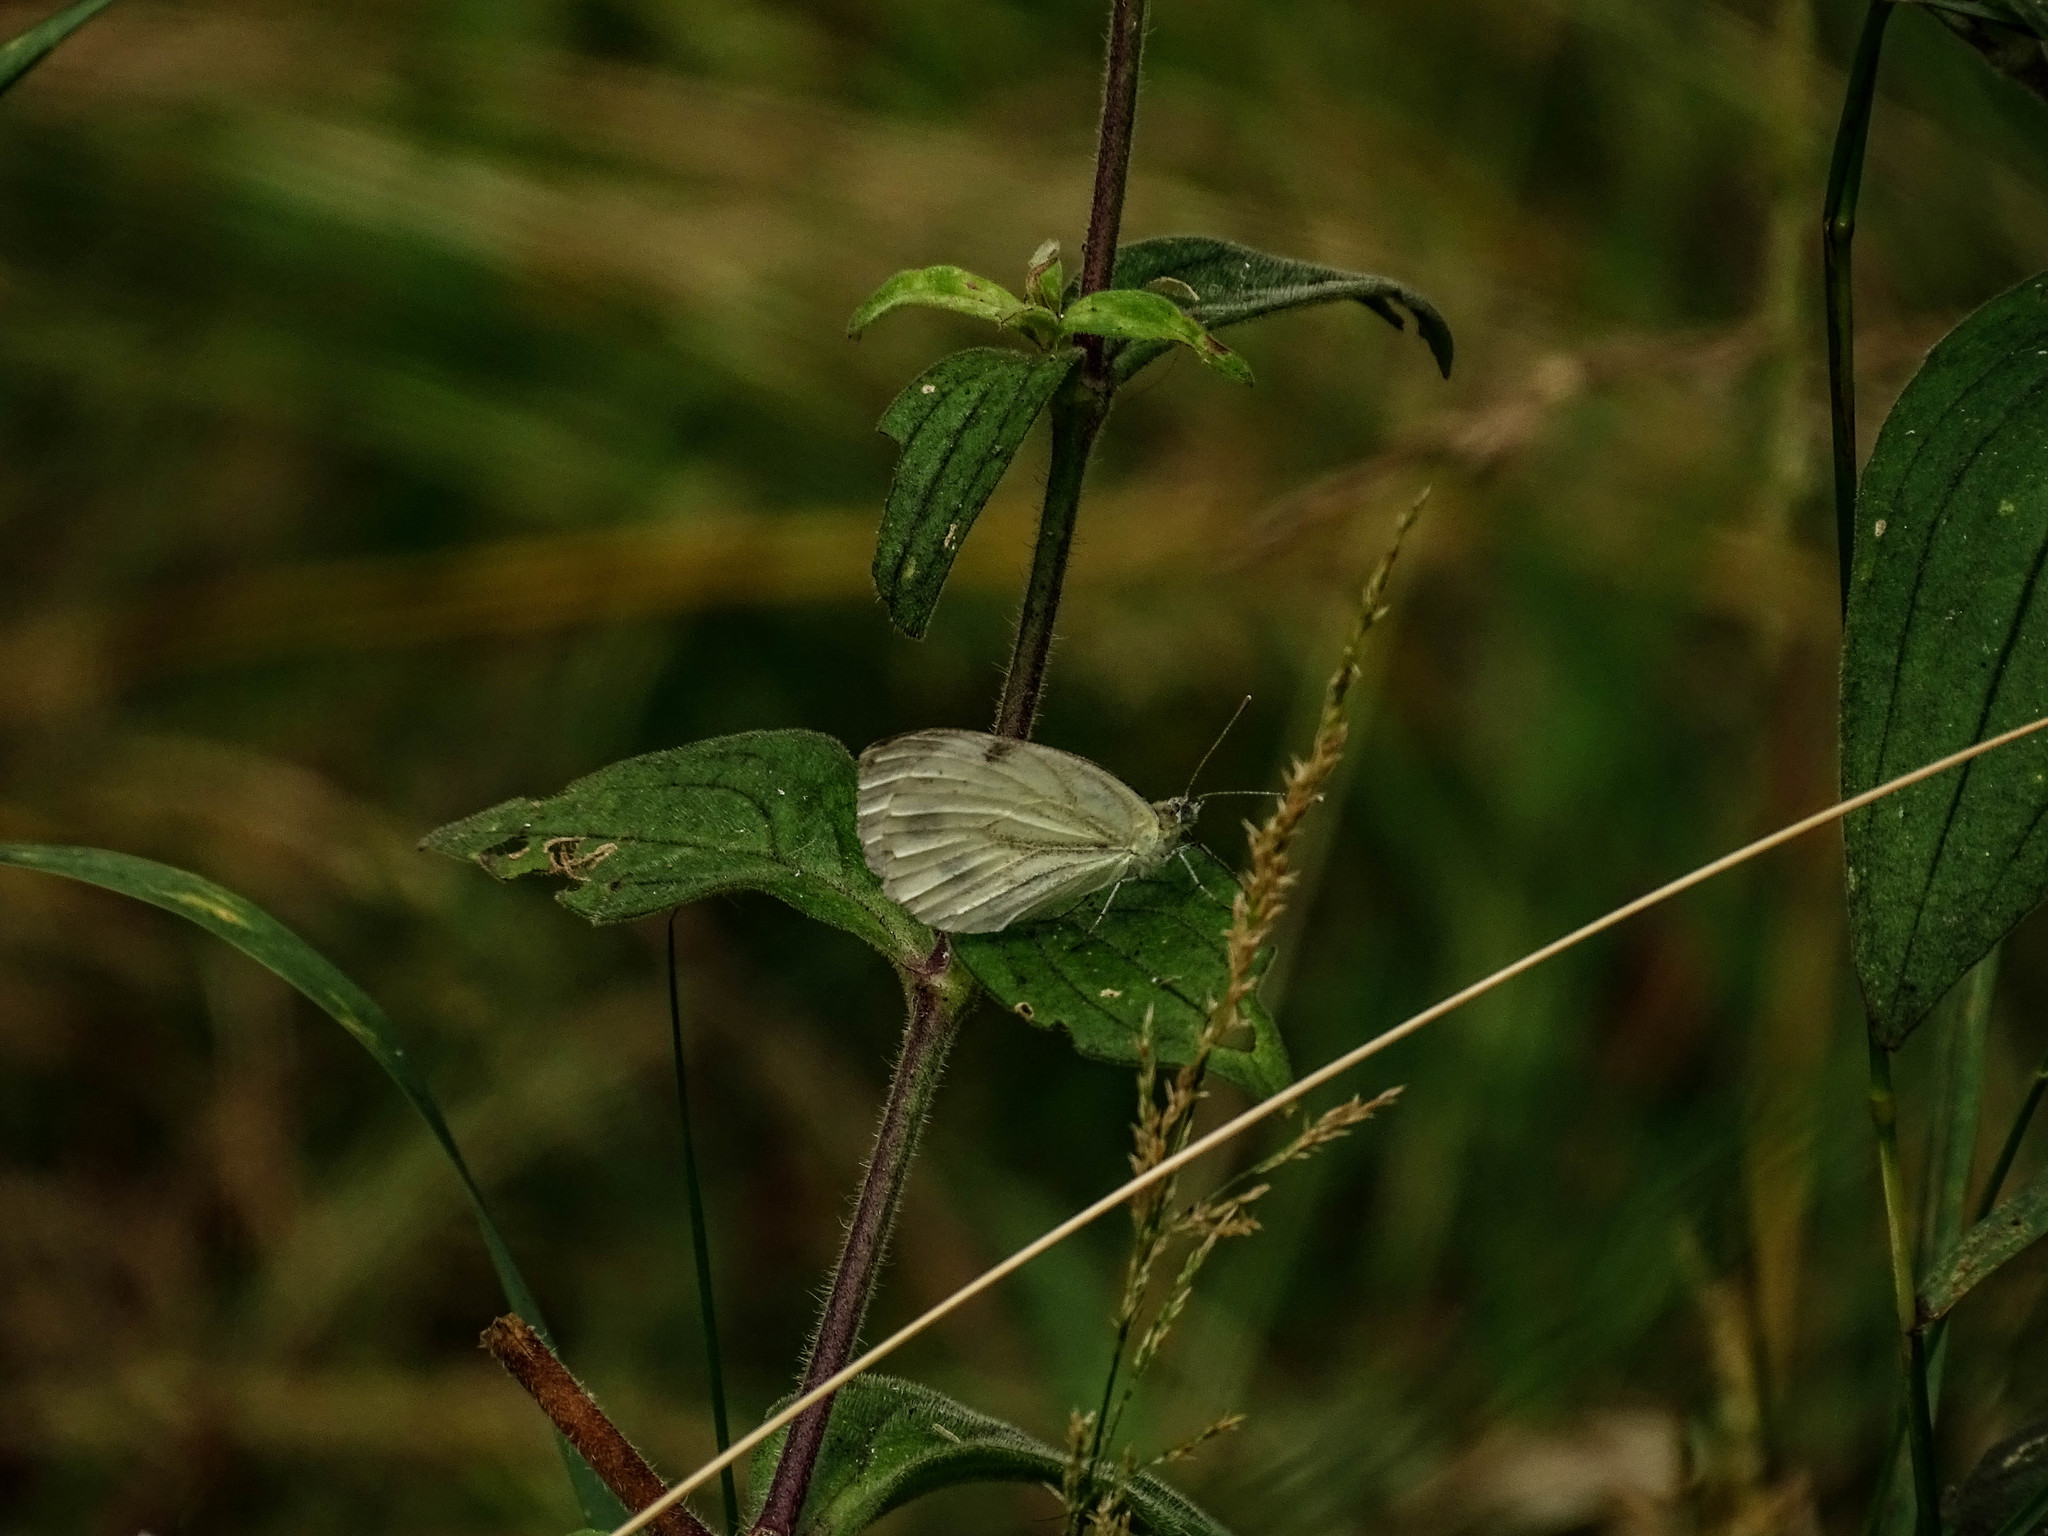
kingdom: Animalia
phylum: Arthropoda
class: Insecta
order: Lepidoptera
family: Pieridae
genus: Pieris
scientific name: Pieris napi
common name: Green-veined white
